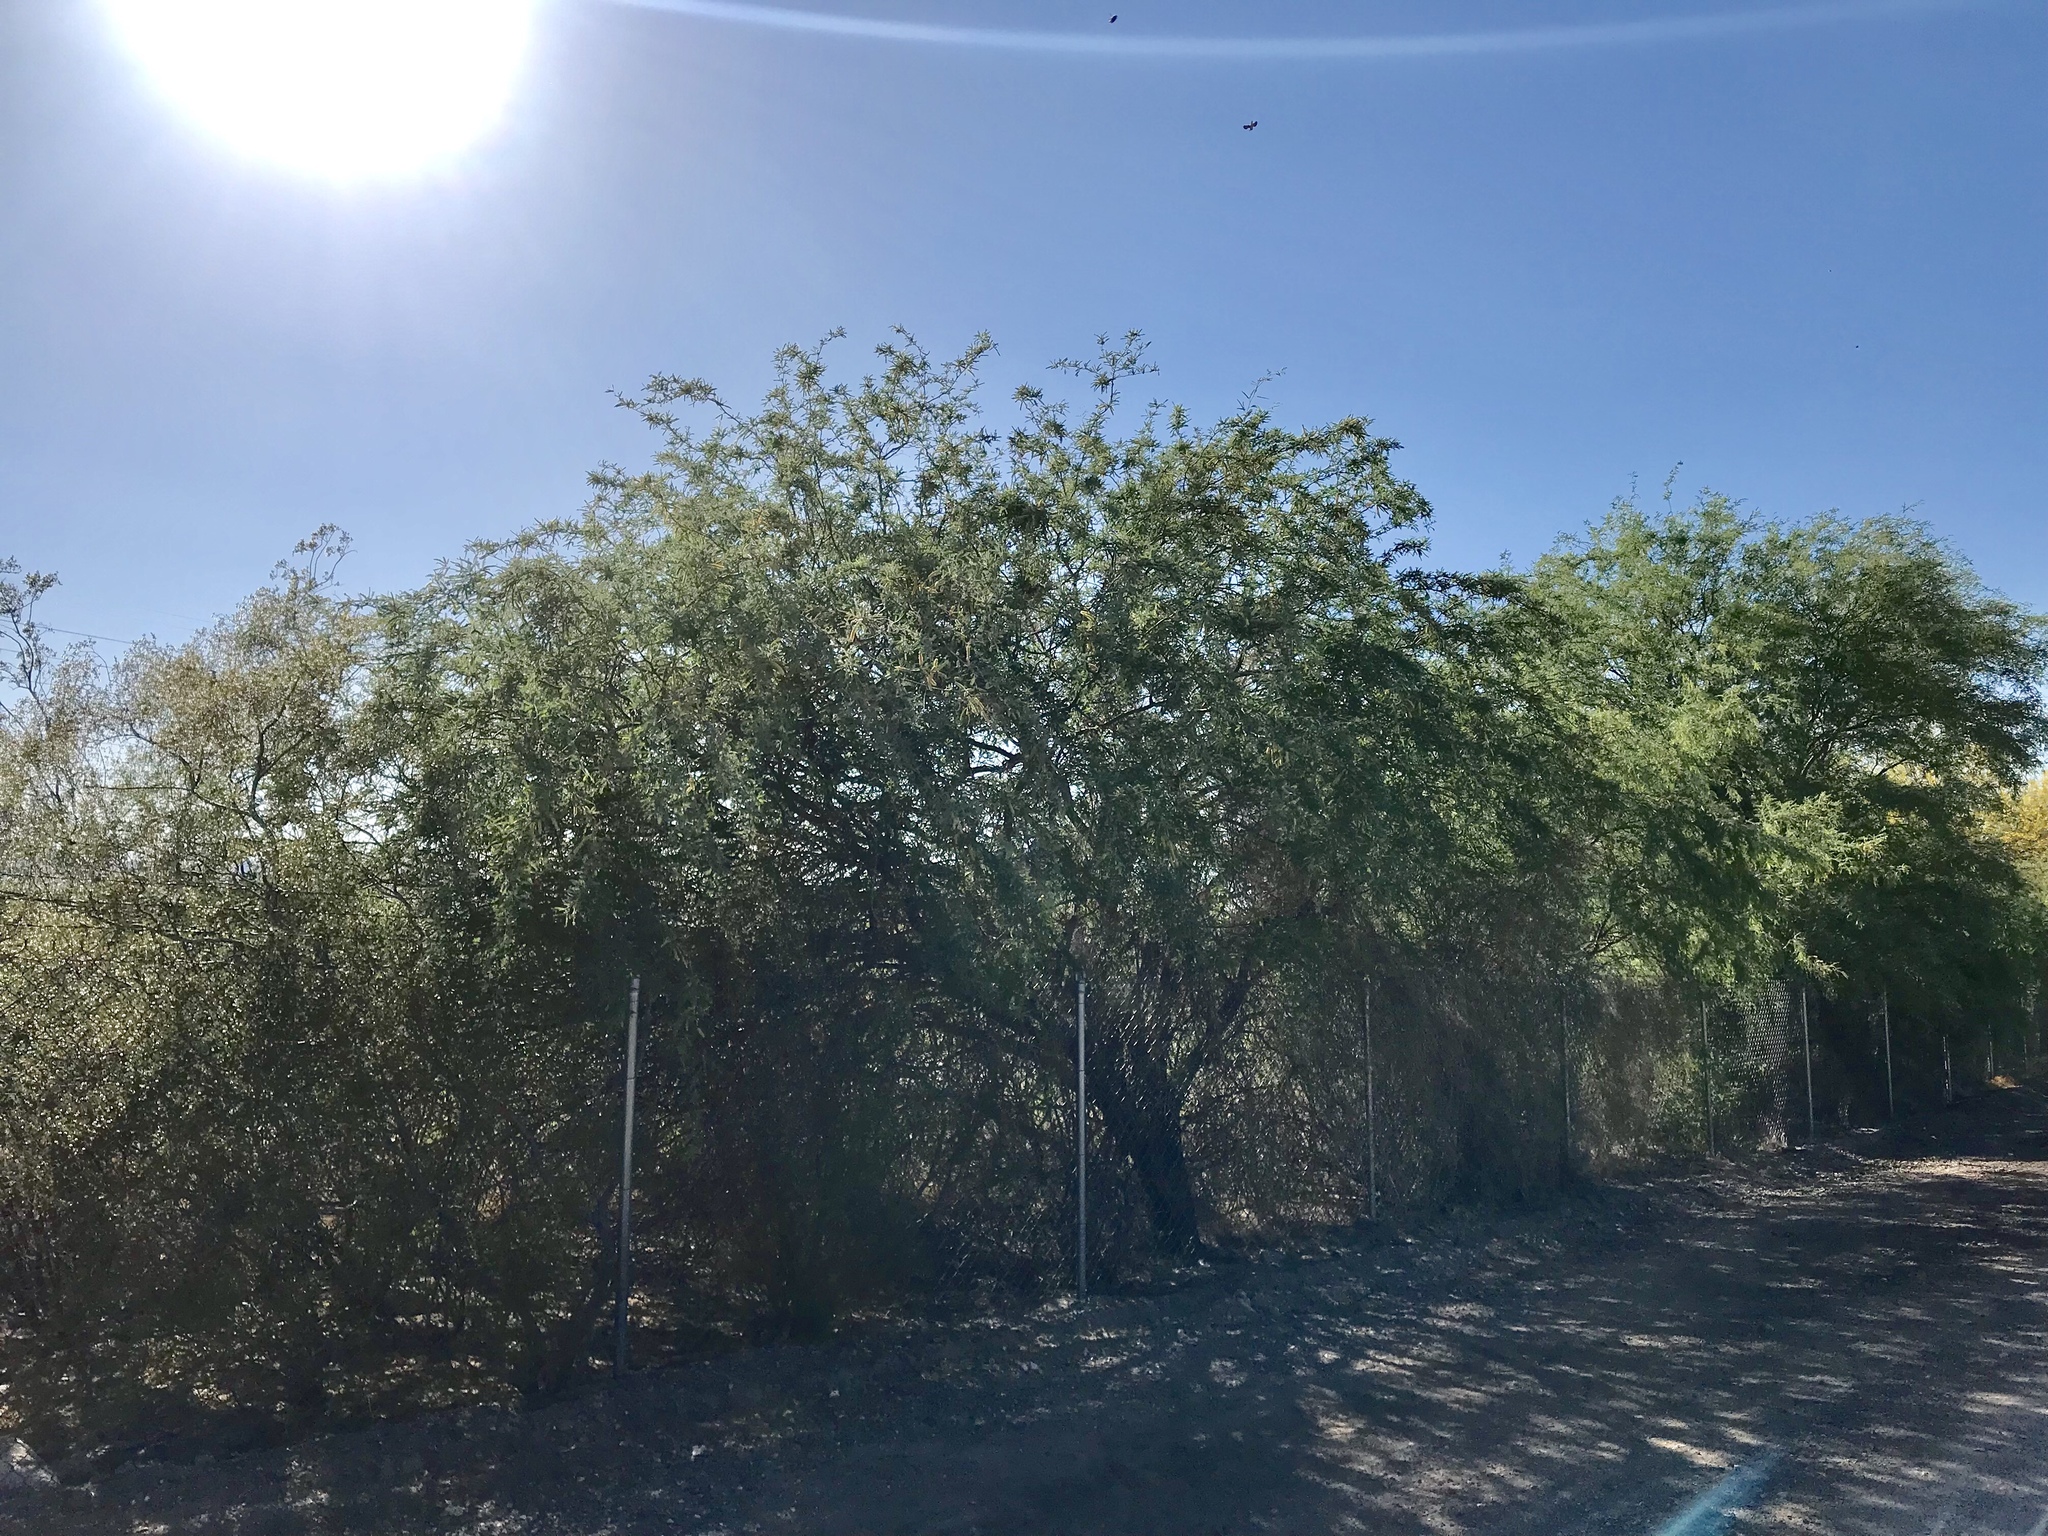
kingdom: Plantae
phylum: Tracheophyta
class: Magnoliopsida
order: Fabales
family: Fabaceae
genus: Prosopis
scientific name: Prosopis velutina
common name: Velvet mesquite
